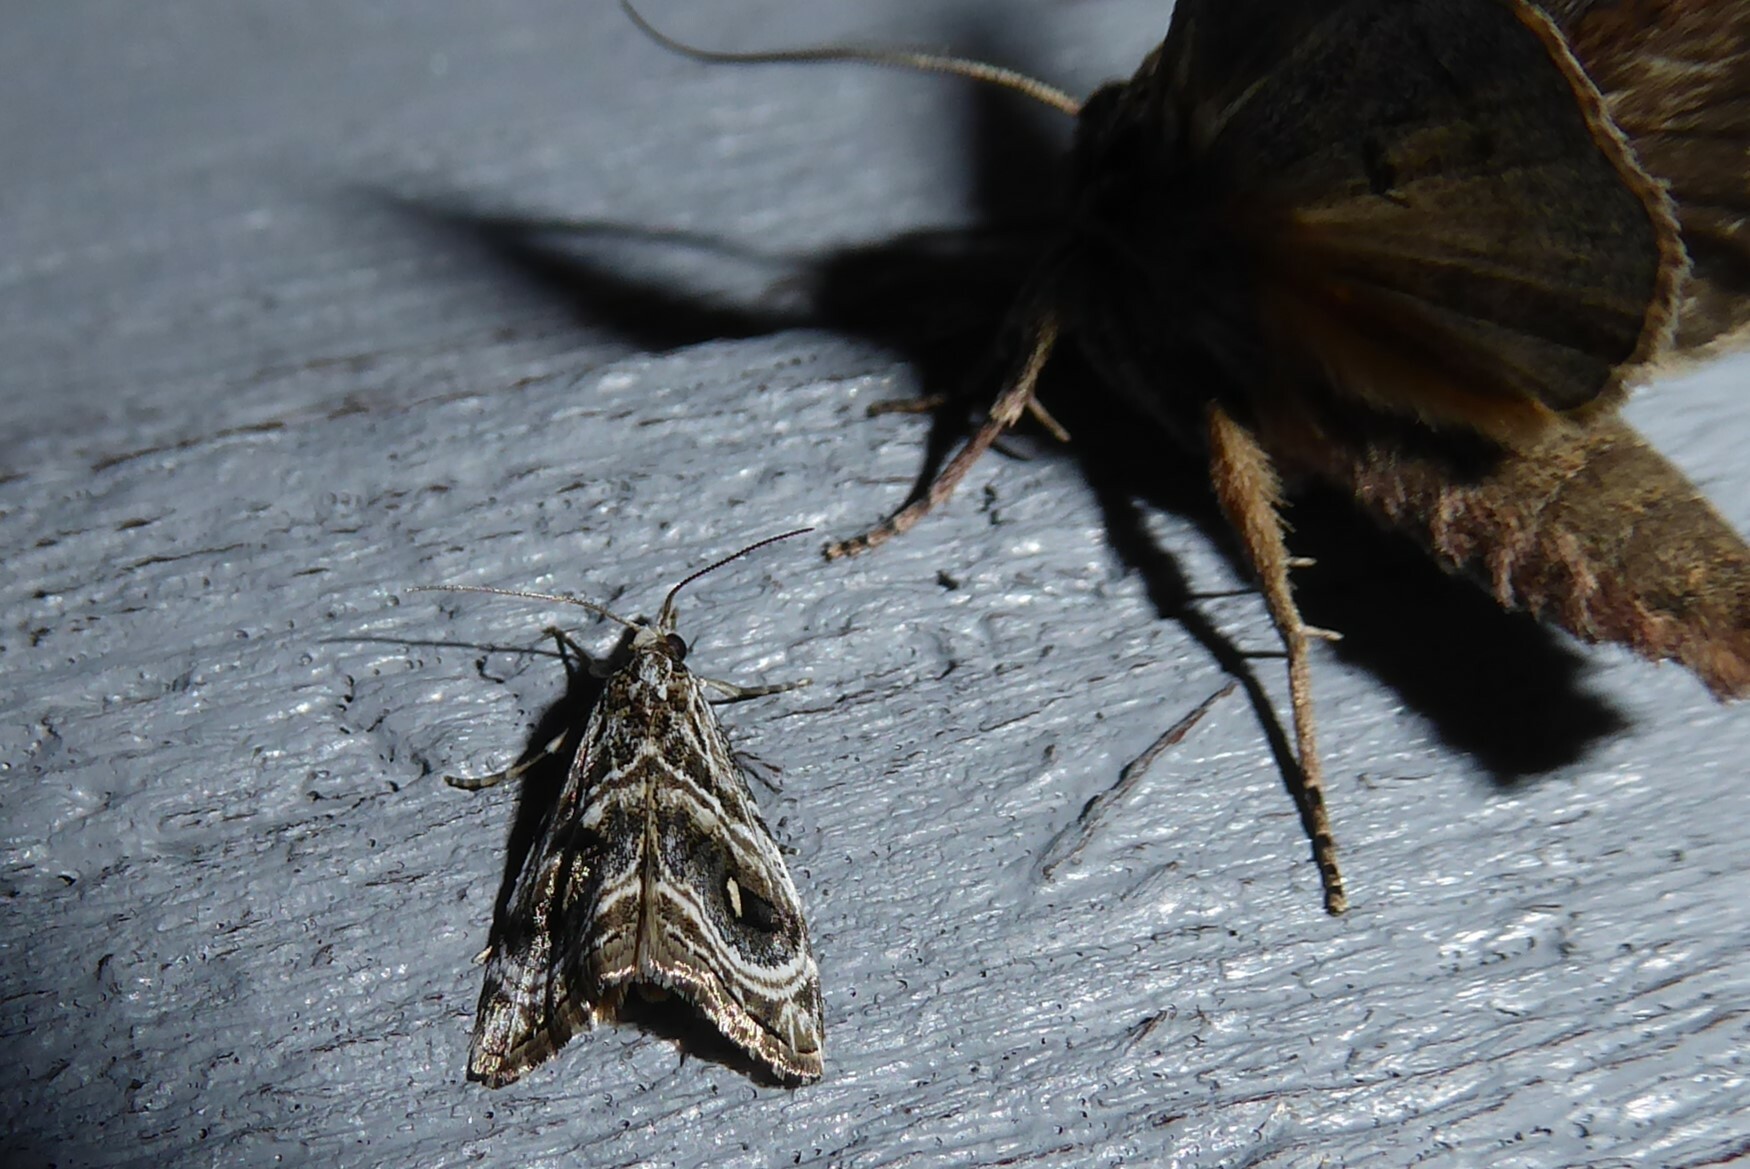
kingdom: Animalia
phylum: Arthropoda
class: Insecta
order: Lepidoptera
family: Crambidae
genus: Gadira
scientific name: Gadira acerella
